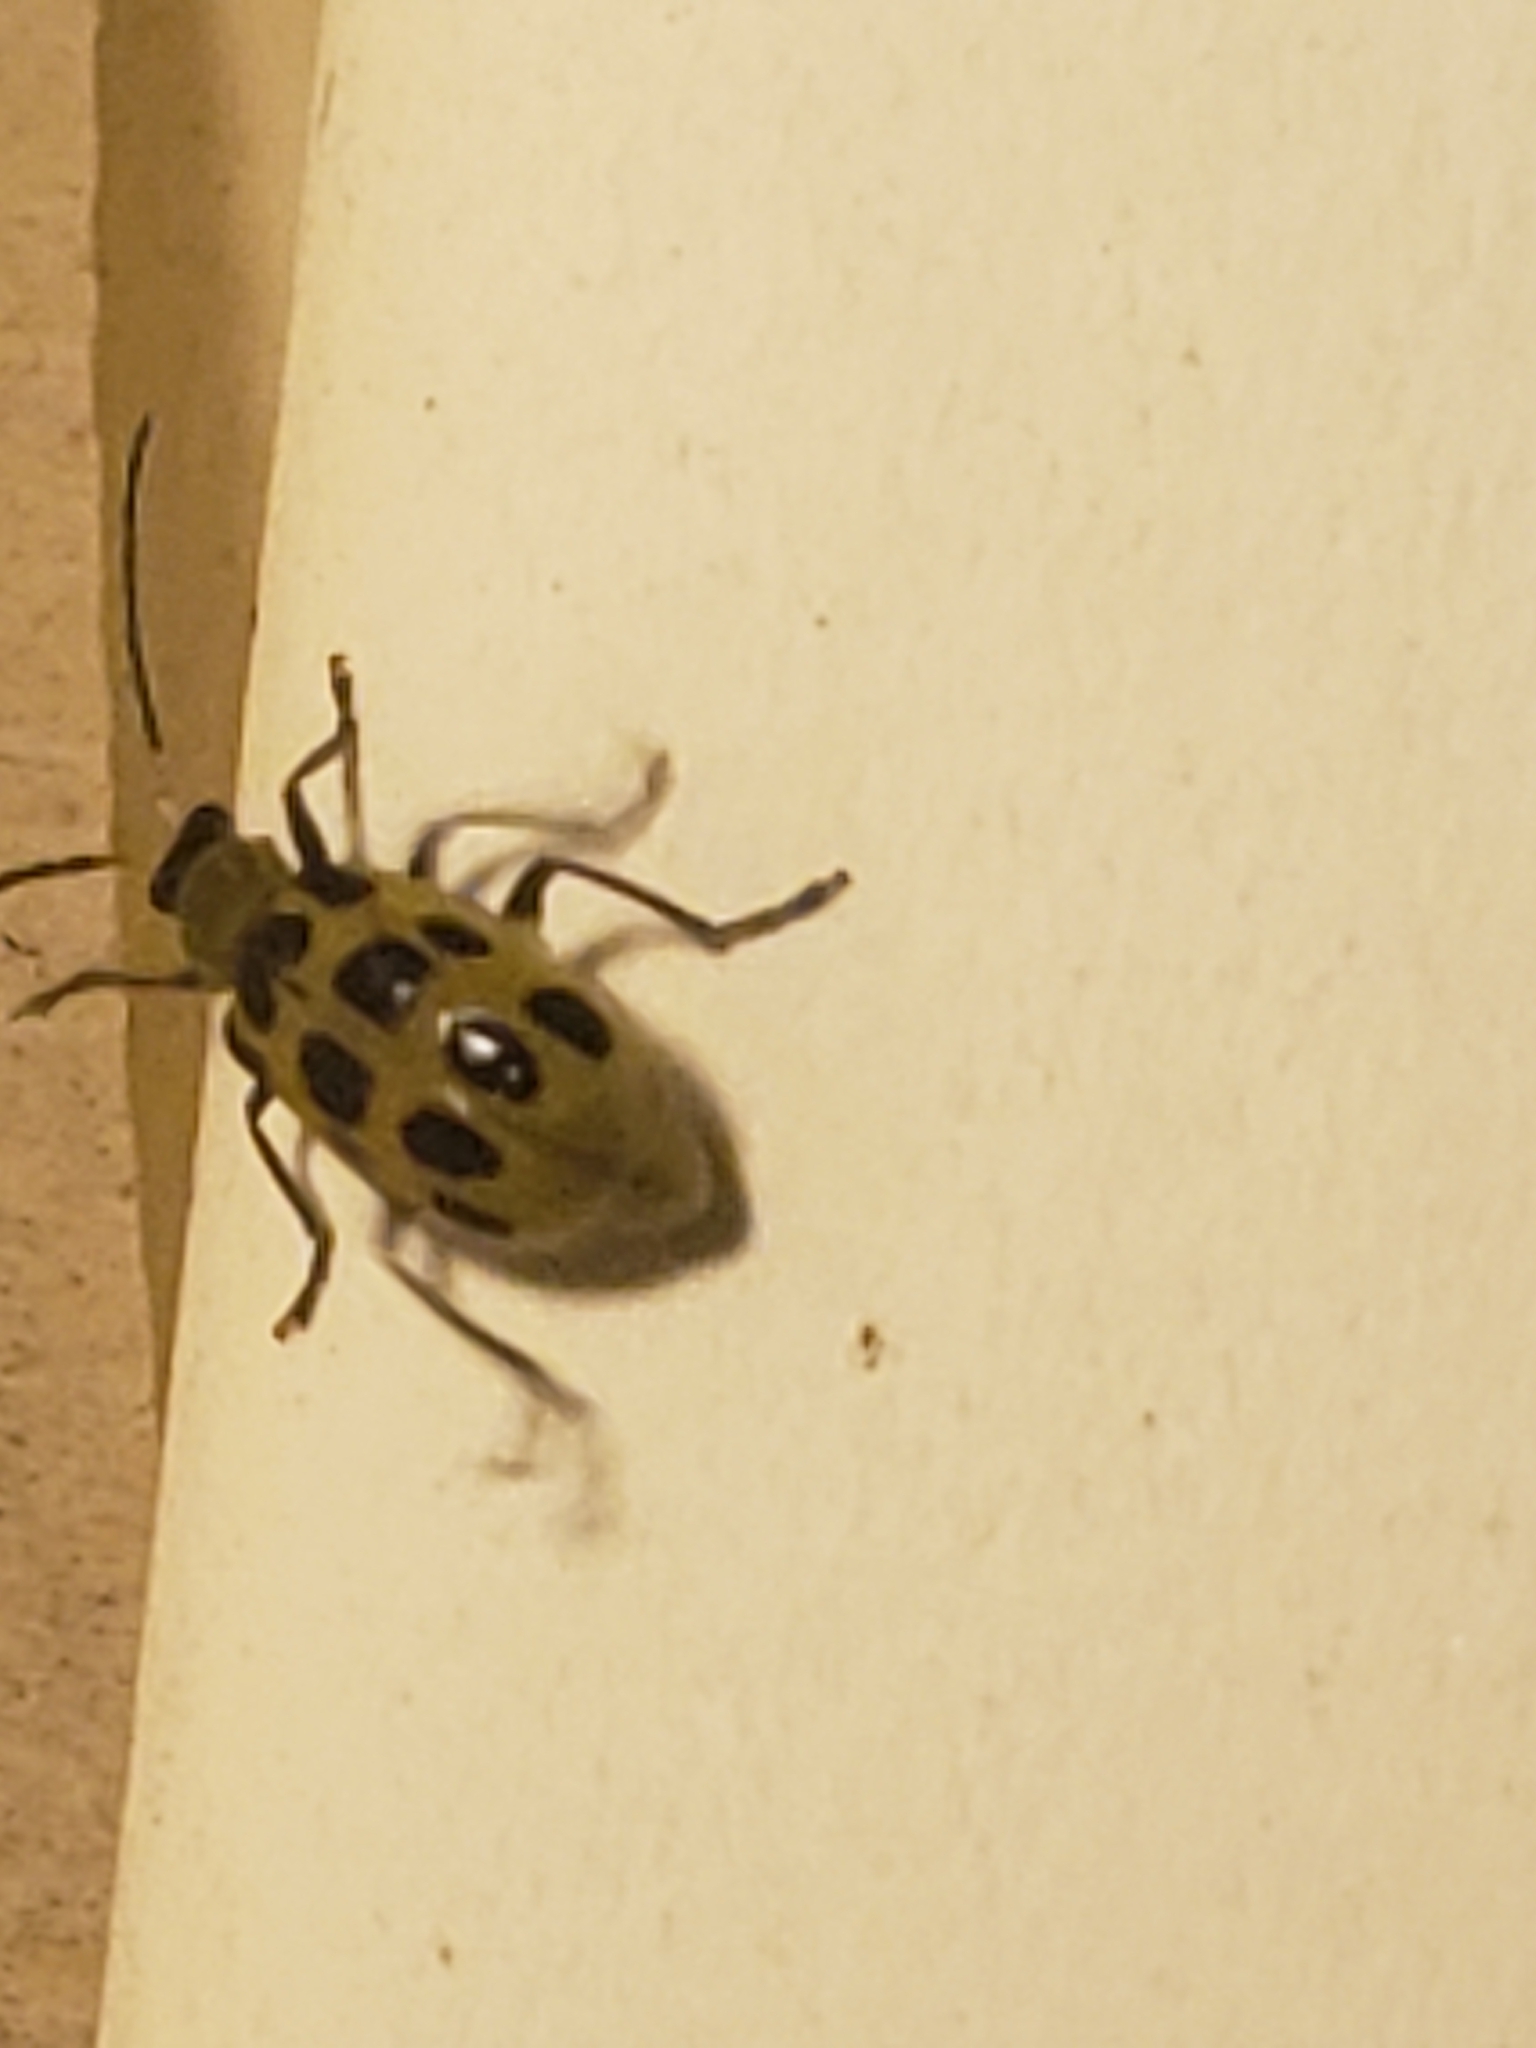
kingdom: Animalia
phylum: Arthropoda
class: Insecta
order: Coleoptera
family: Chrysomelidae
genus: Diabrotica
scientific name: Diabrotica undecimpunctata
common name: Spotted cucumber beetle
